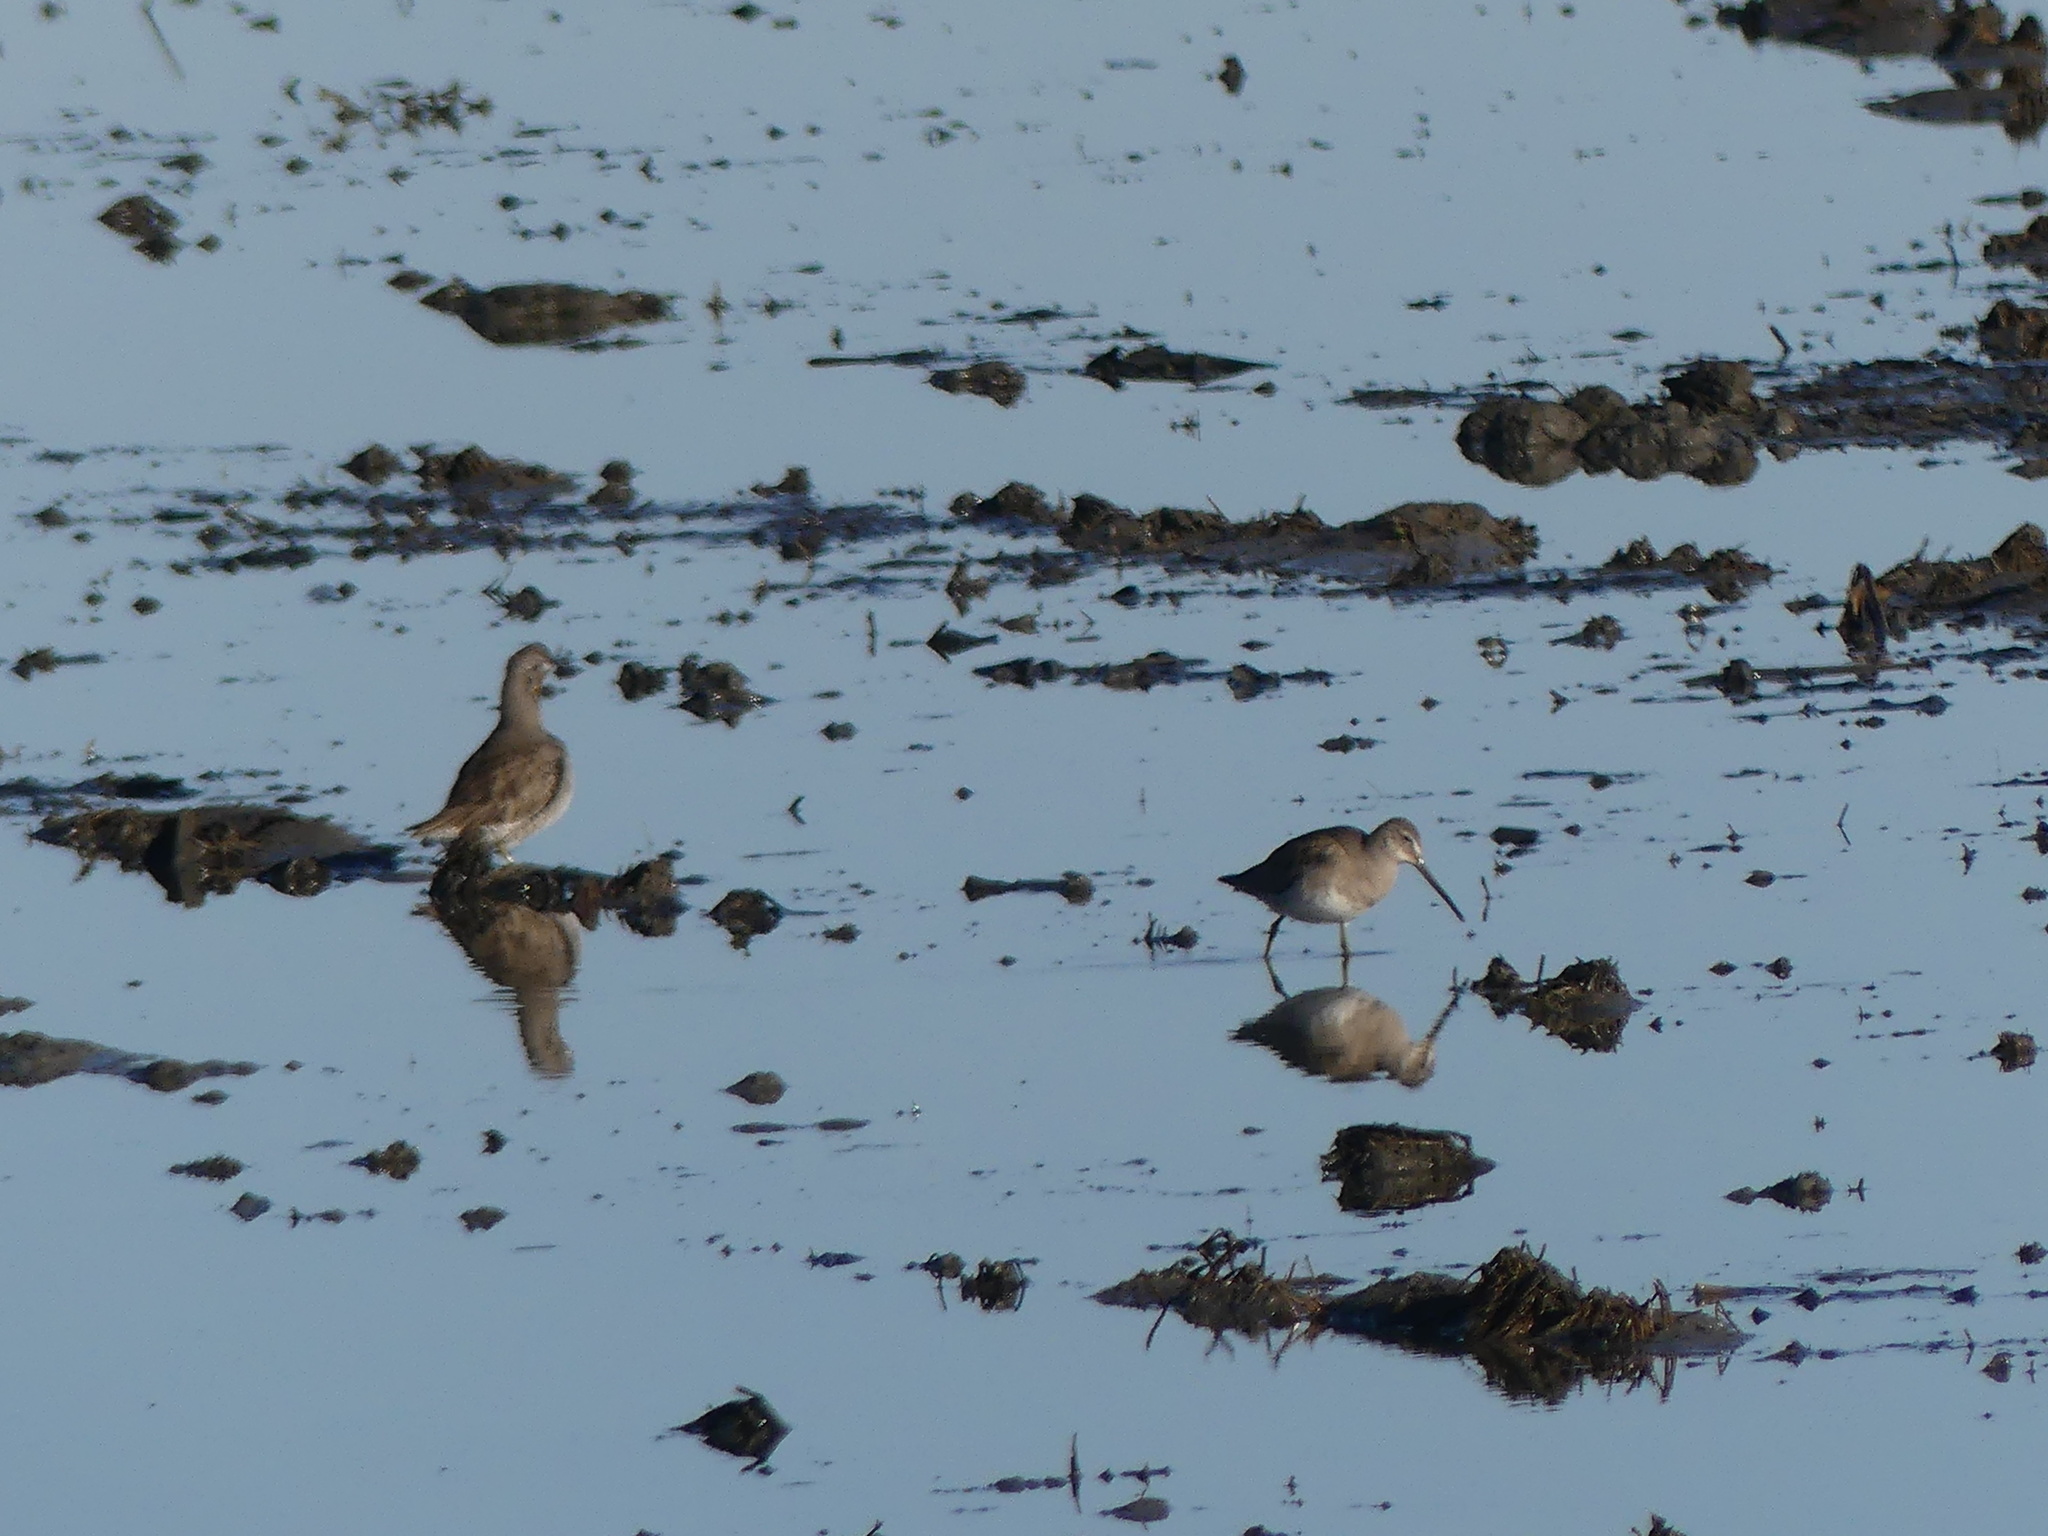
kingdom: Animalia
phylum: Chordata
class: Aves
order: Charadriiformes
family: Scolopacidae
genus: Limnodromus
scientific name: Limnodromus scolopaceus
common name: Long-billed dowitcher
